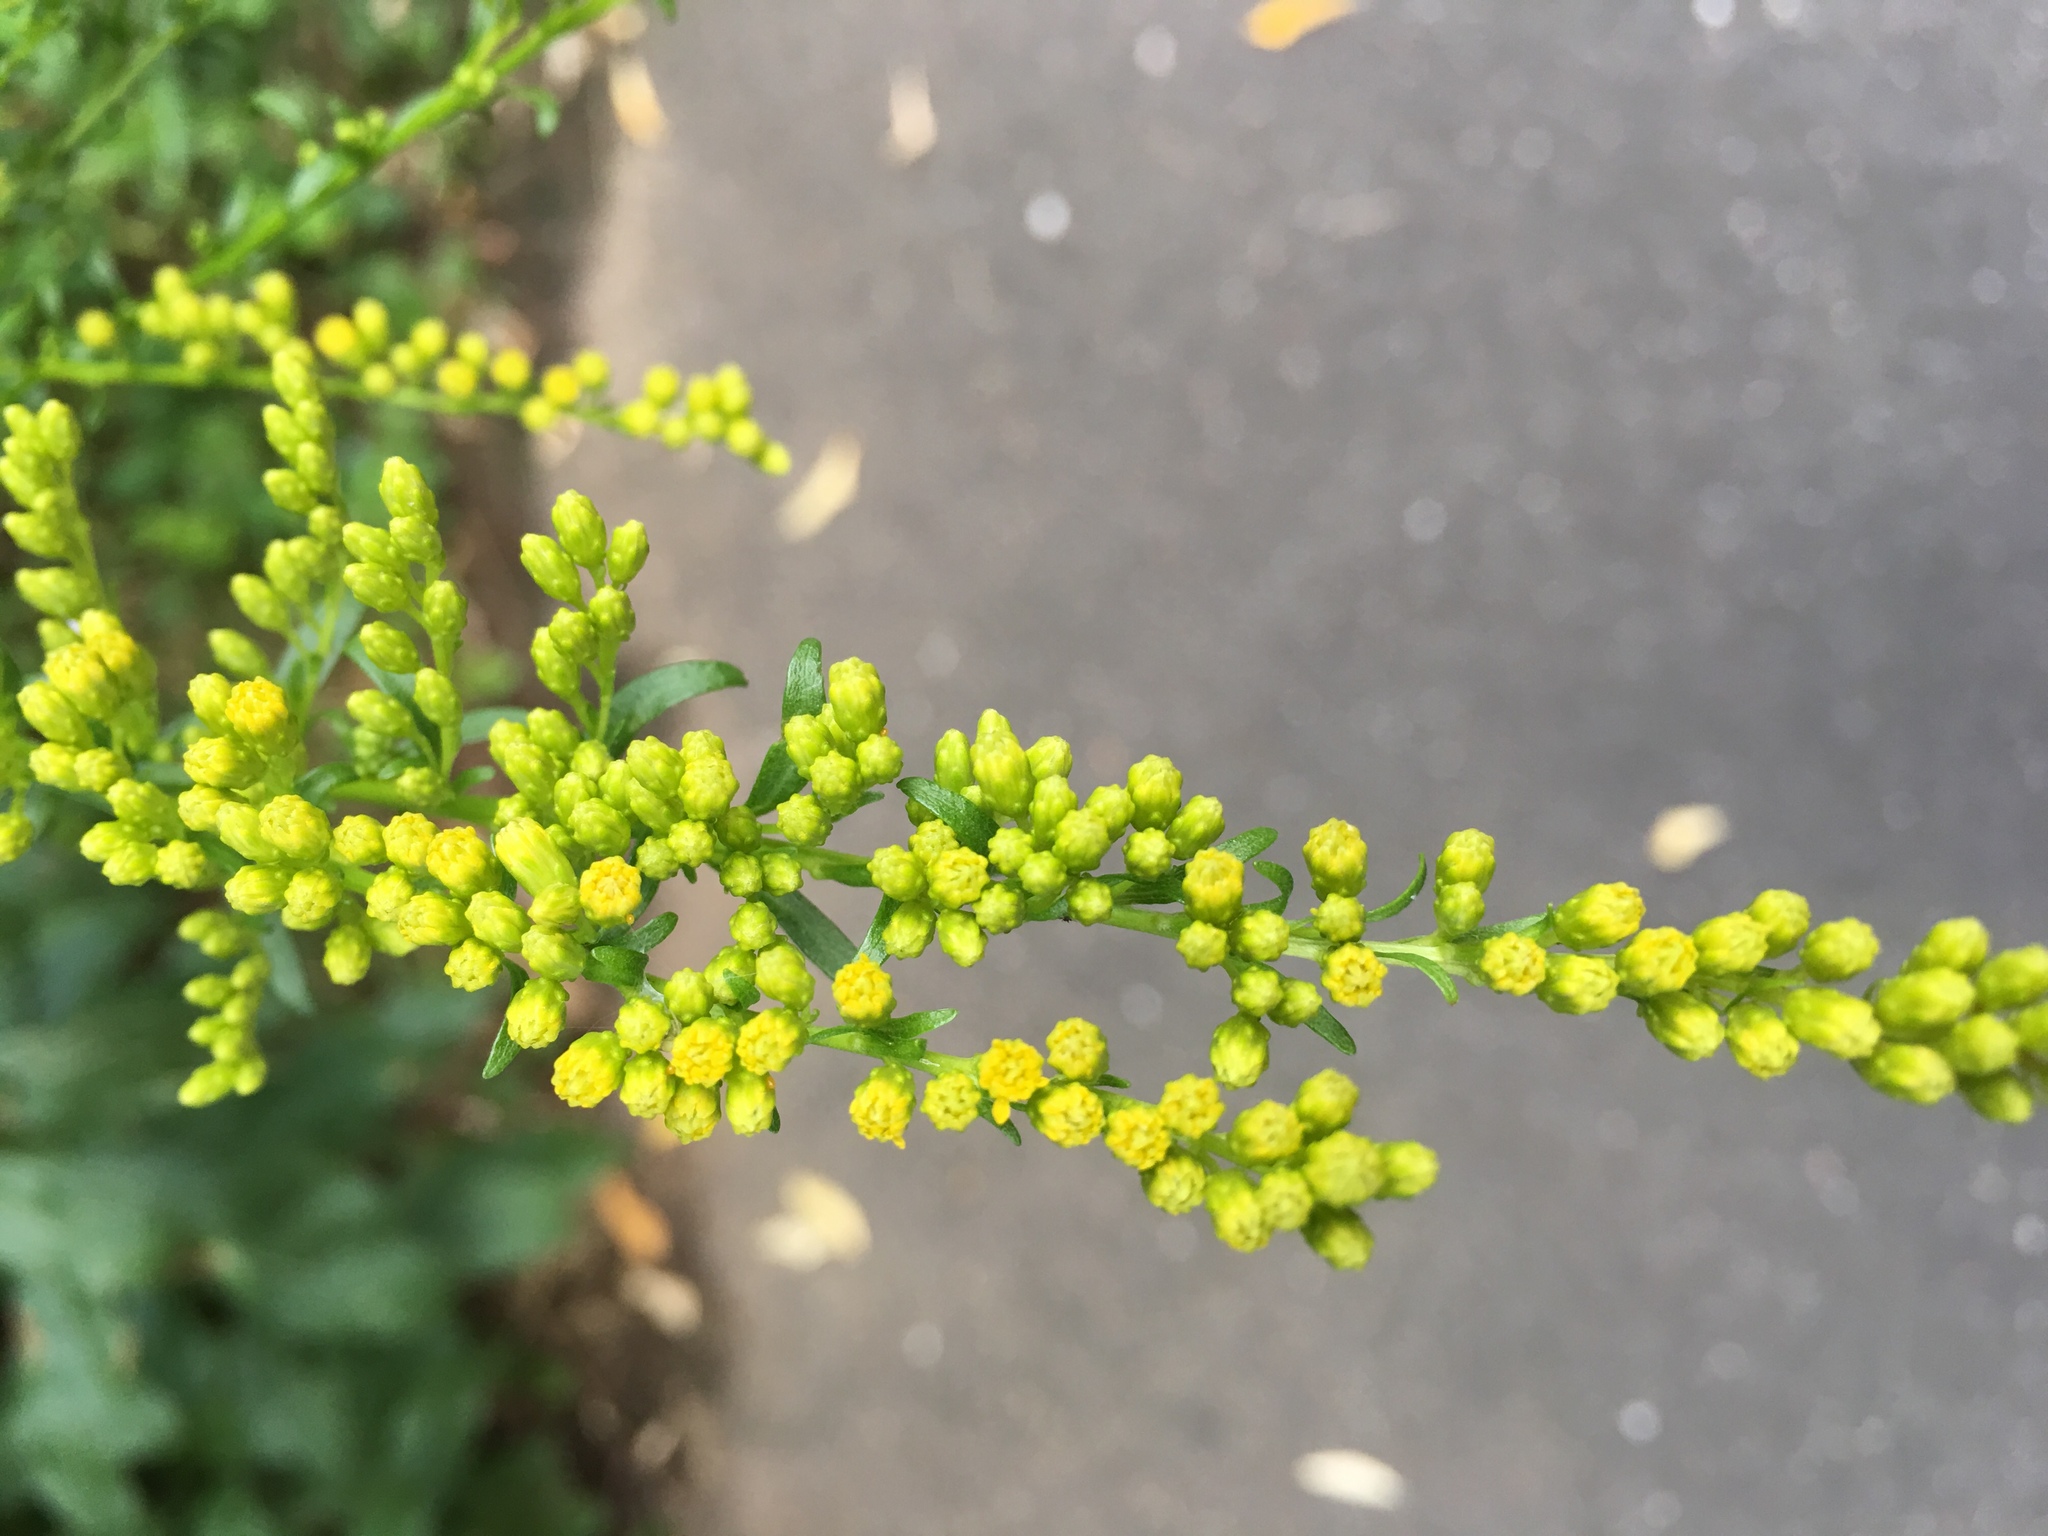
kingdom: Plantae
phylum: Tracheophyta
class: Magnoliopsida
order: Asterales
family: Asteraceae
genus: Solidago
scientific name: Solidago rugosa
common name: Rough-stemmed goldenrod
